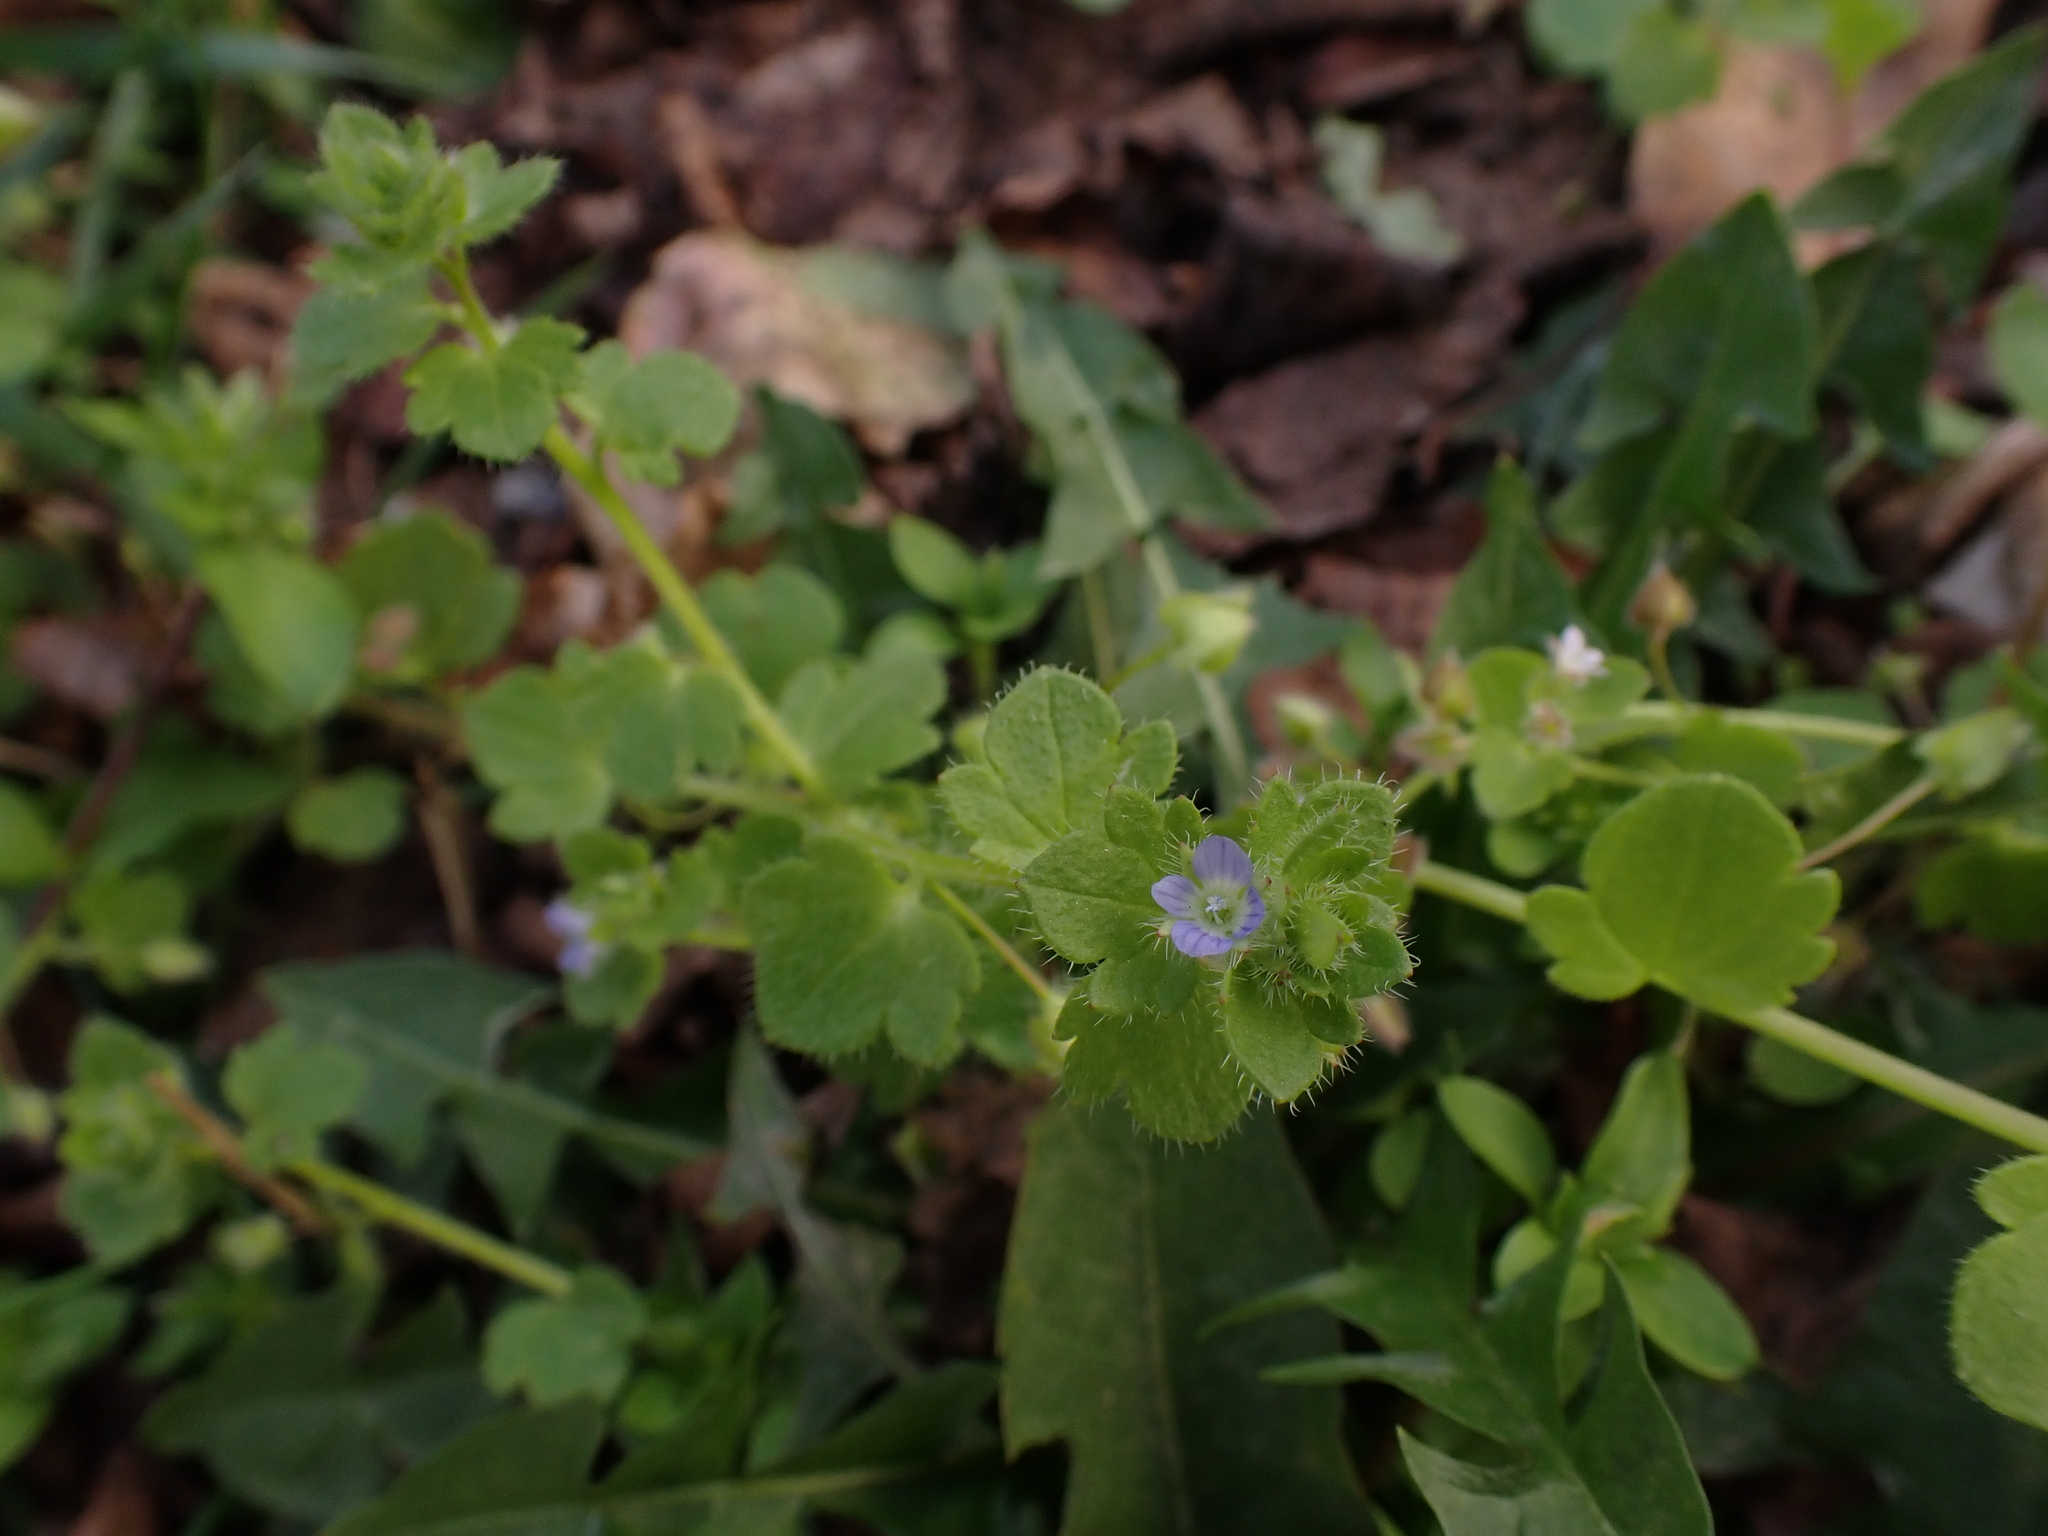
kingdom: Plantae
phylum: Tracheophyta
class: Magnoliopsida
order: Lamiales
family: Plantaginaceae
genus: Veronica
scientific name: Veronica hederifolia
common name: Ivy-leaved speedwell
